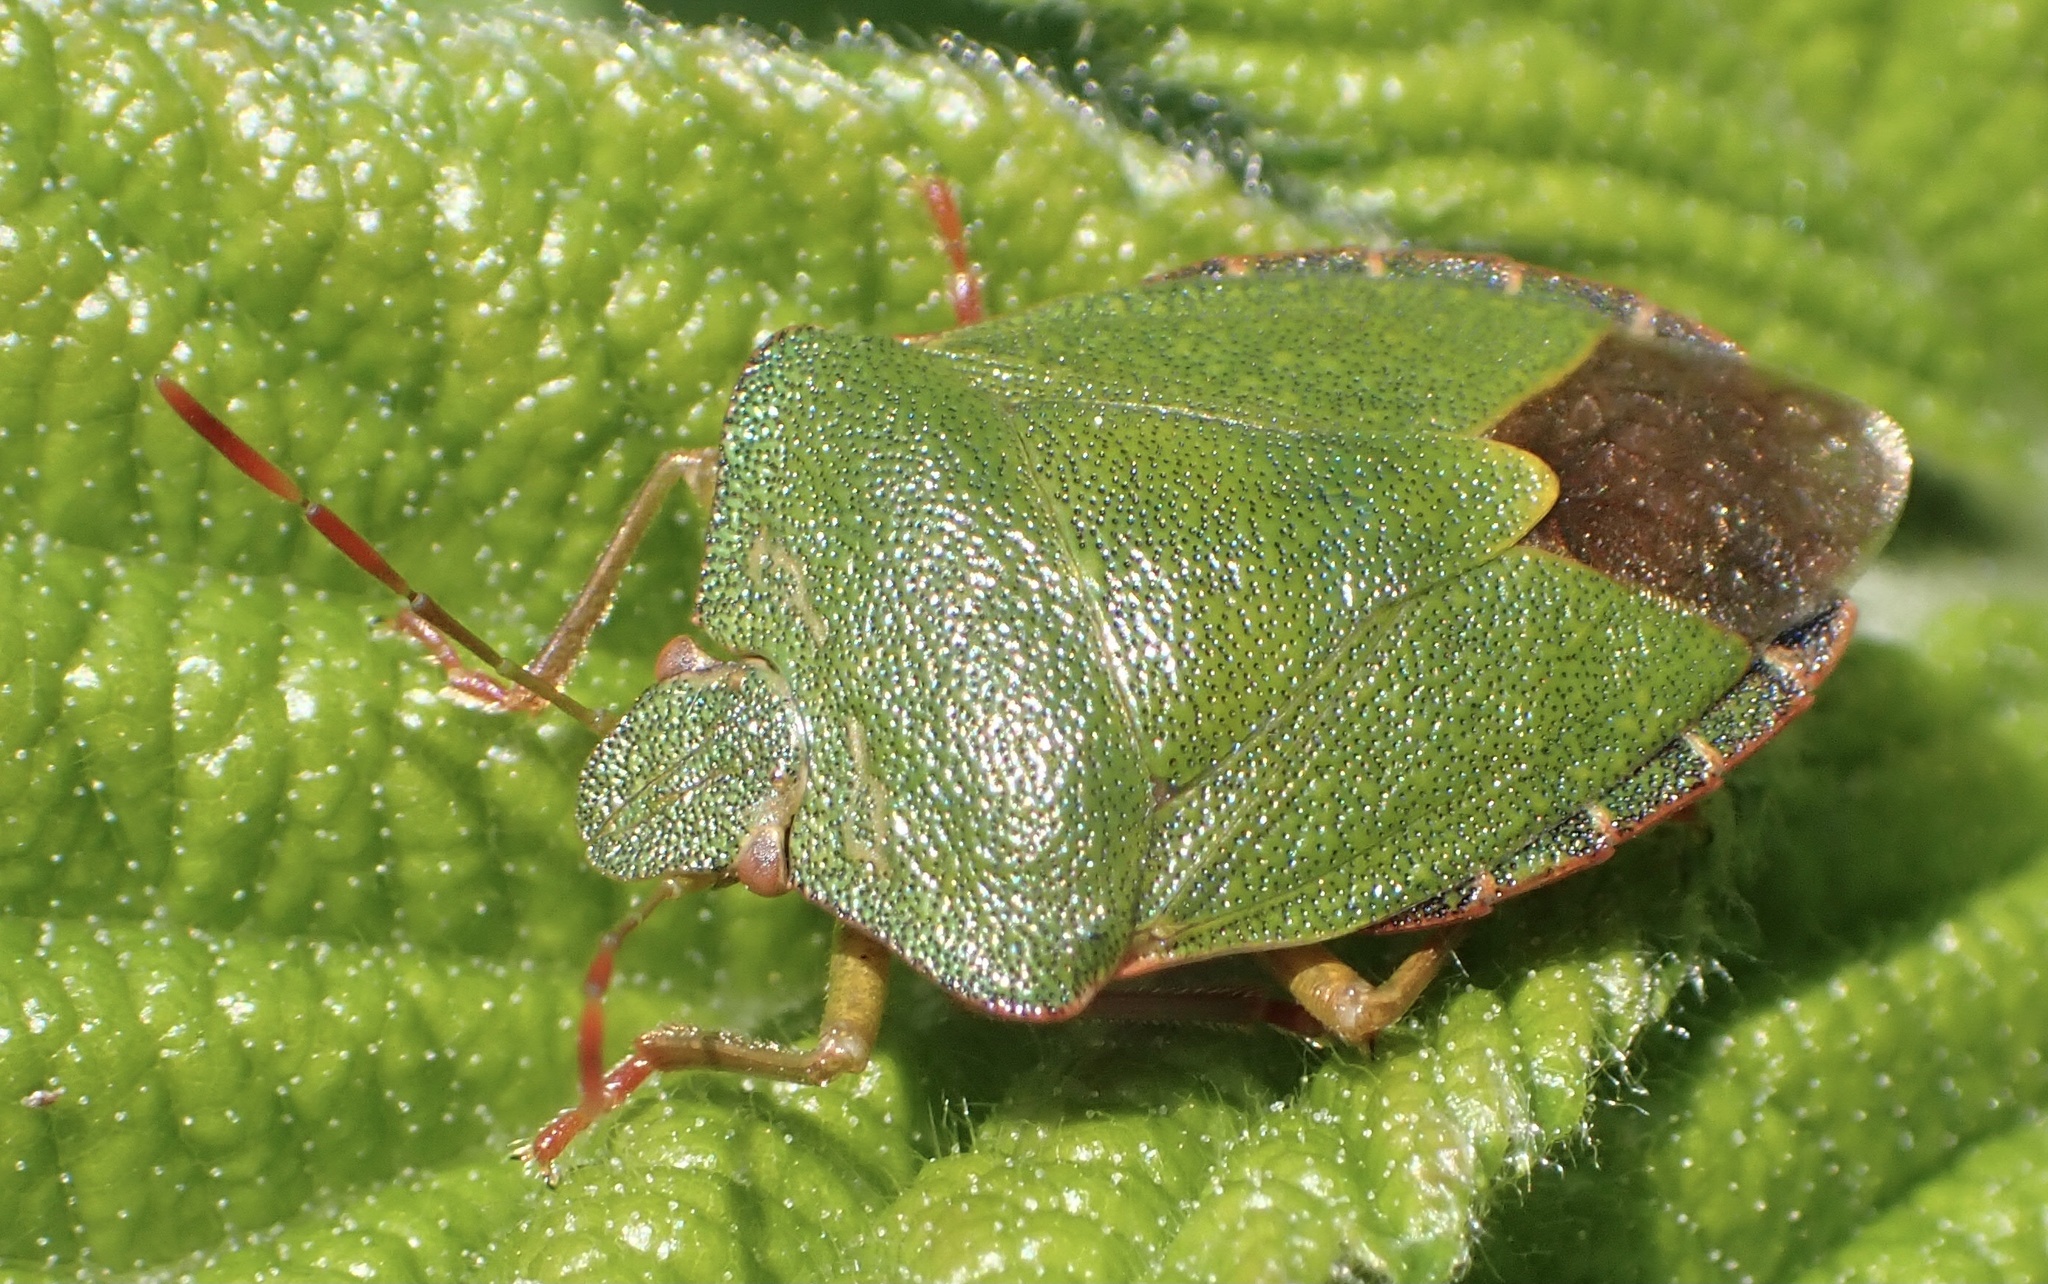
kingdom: Animalia
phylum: Arthropoda
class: Insecta
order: Hemiptera
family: Pentatomidae
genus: Palomena
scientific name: Palomena prasina
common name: Green shieldbug
